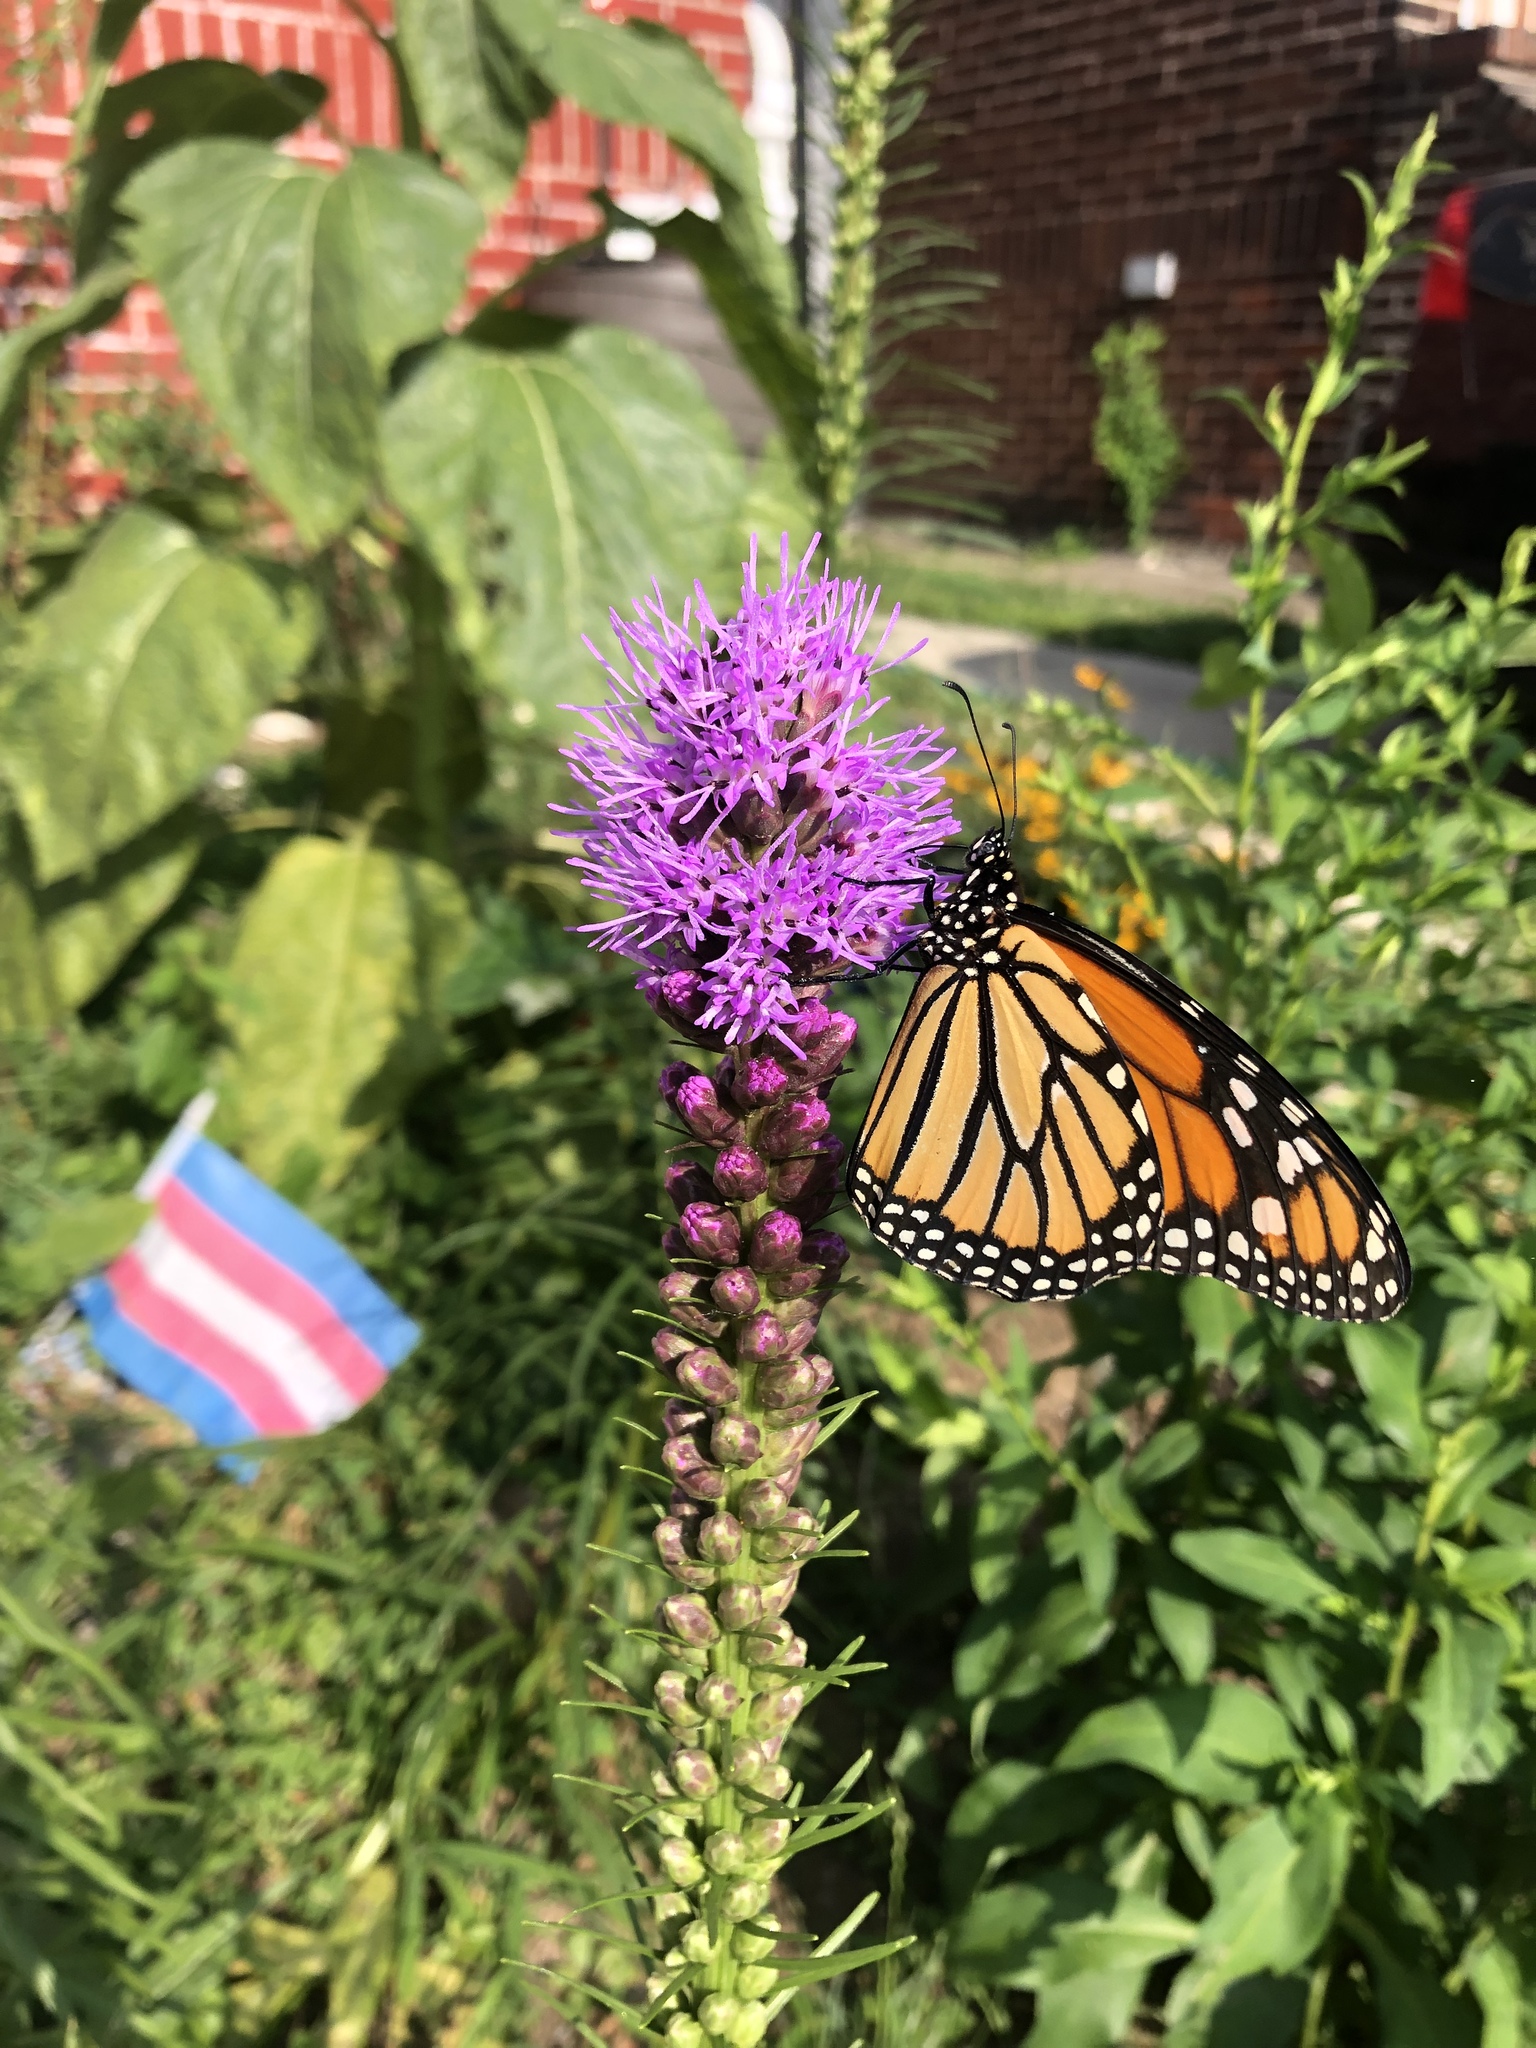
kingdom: Animalia
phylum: Arthropoda
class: Insecta
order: Lepidoptera
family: Nymphalidae
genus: Danaus
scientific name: Danaus plexippus
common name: Monarch
